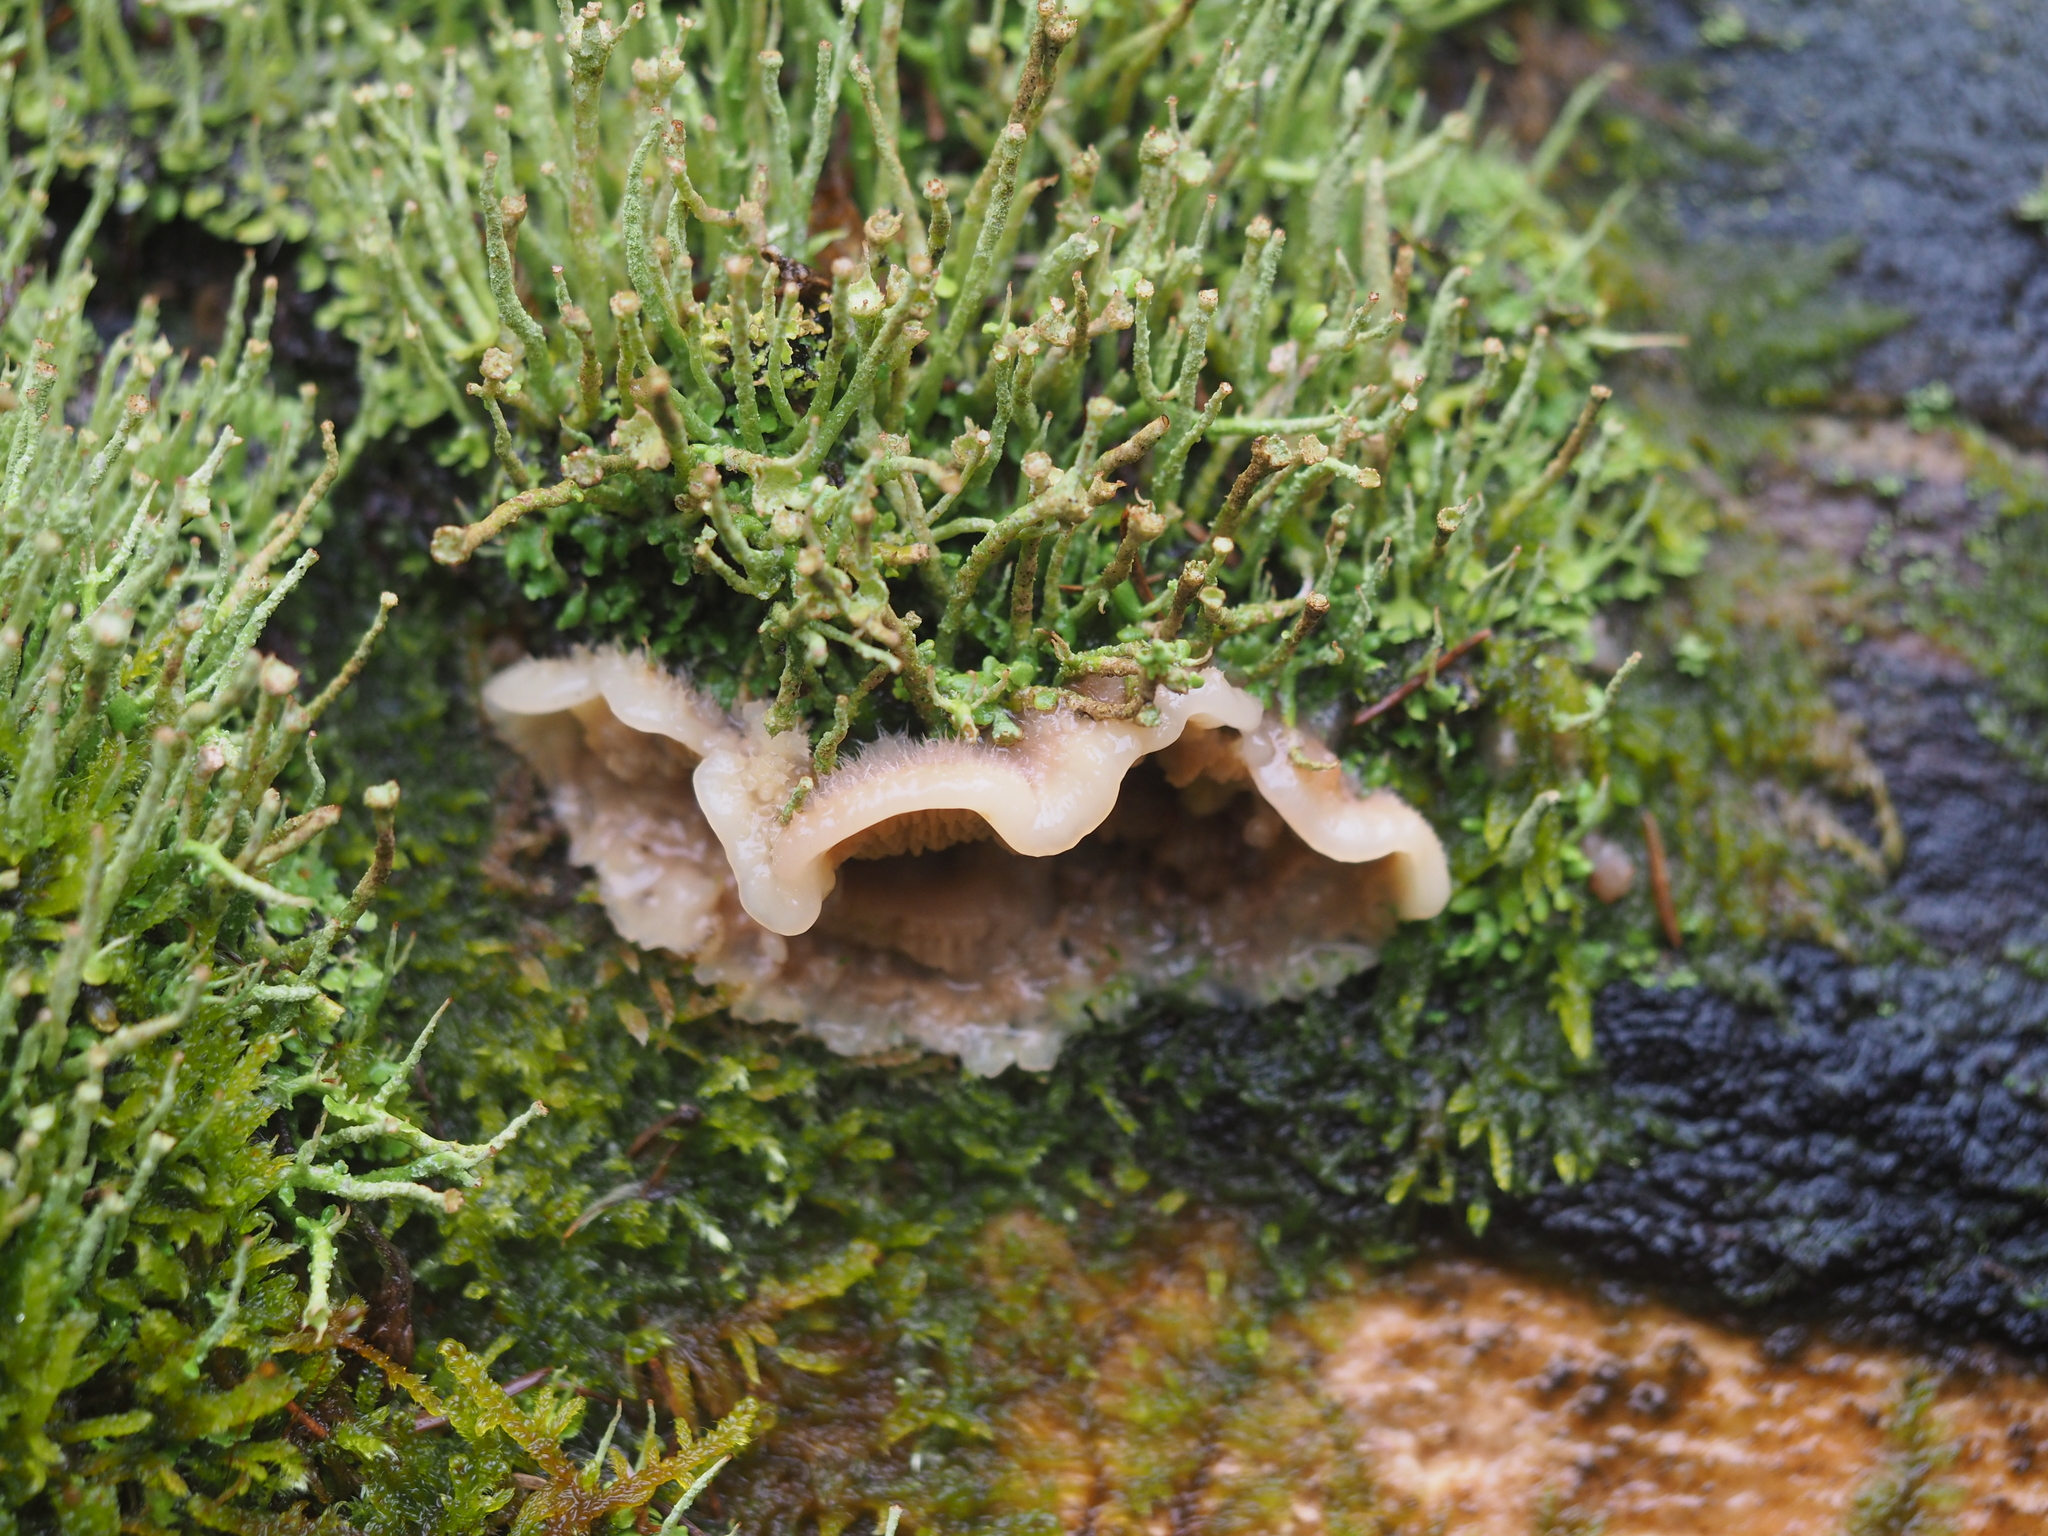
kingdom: Fungi
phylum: Basidiomycota
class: Agaricomycetes
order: Polyporales
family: Meruliaceae
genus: Phlebia
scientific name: Phlebia tremellosa
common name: Jelly rot
